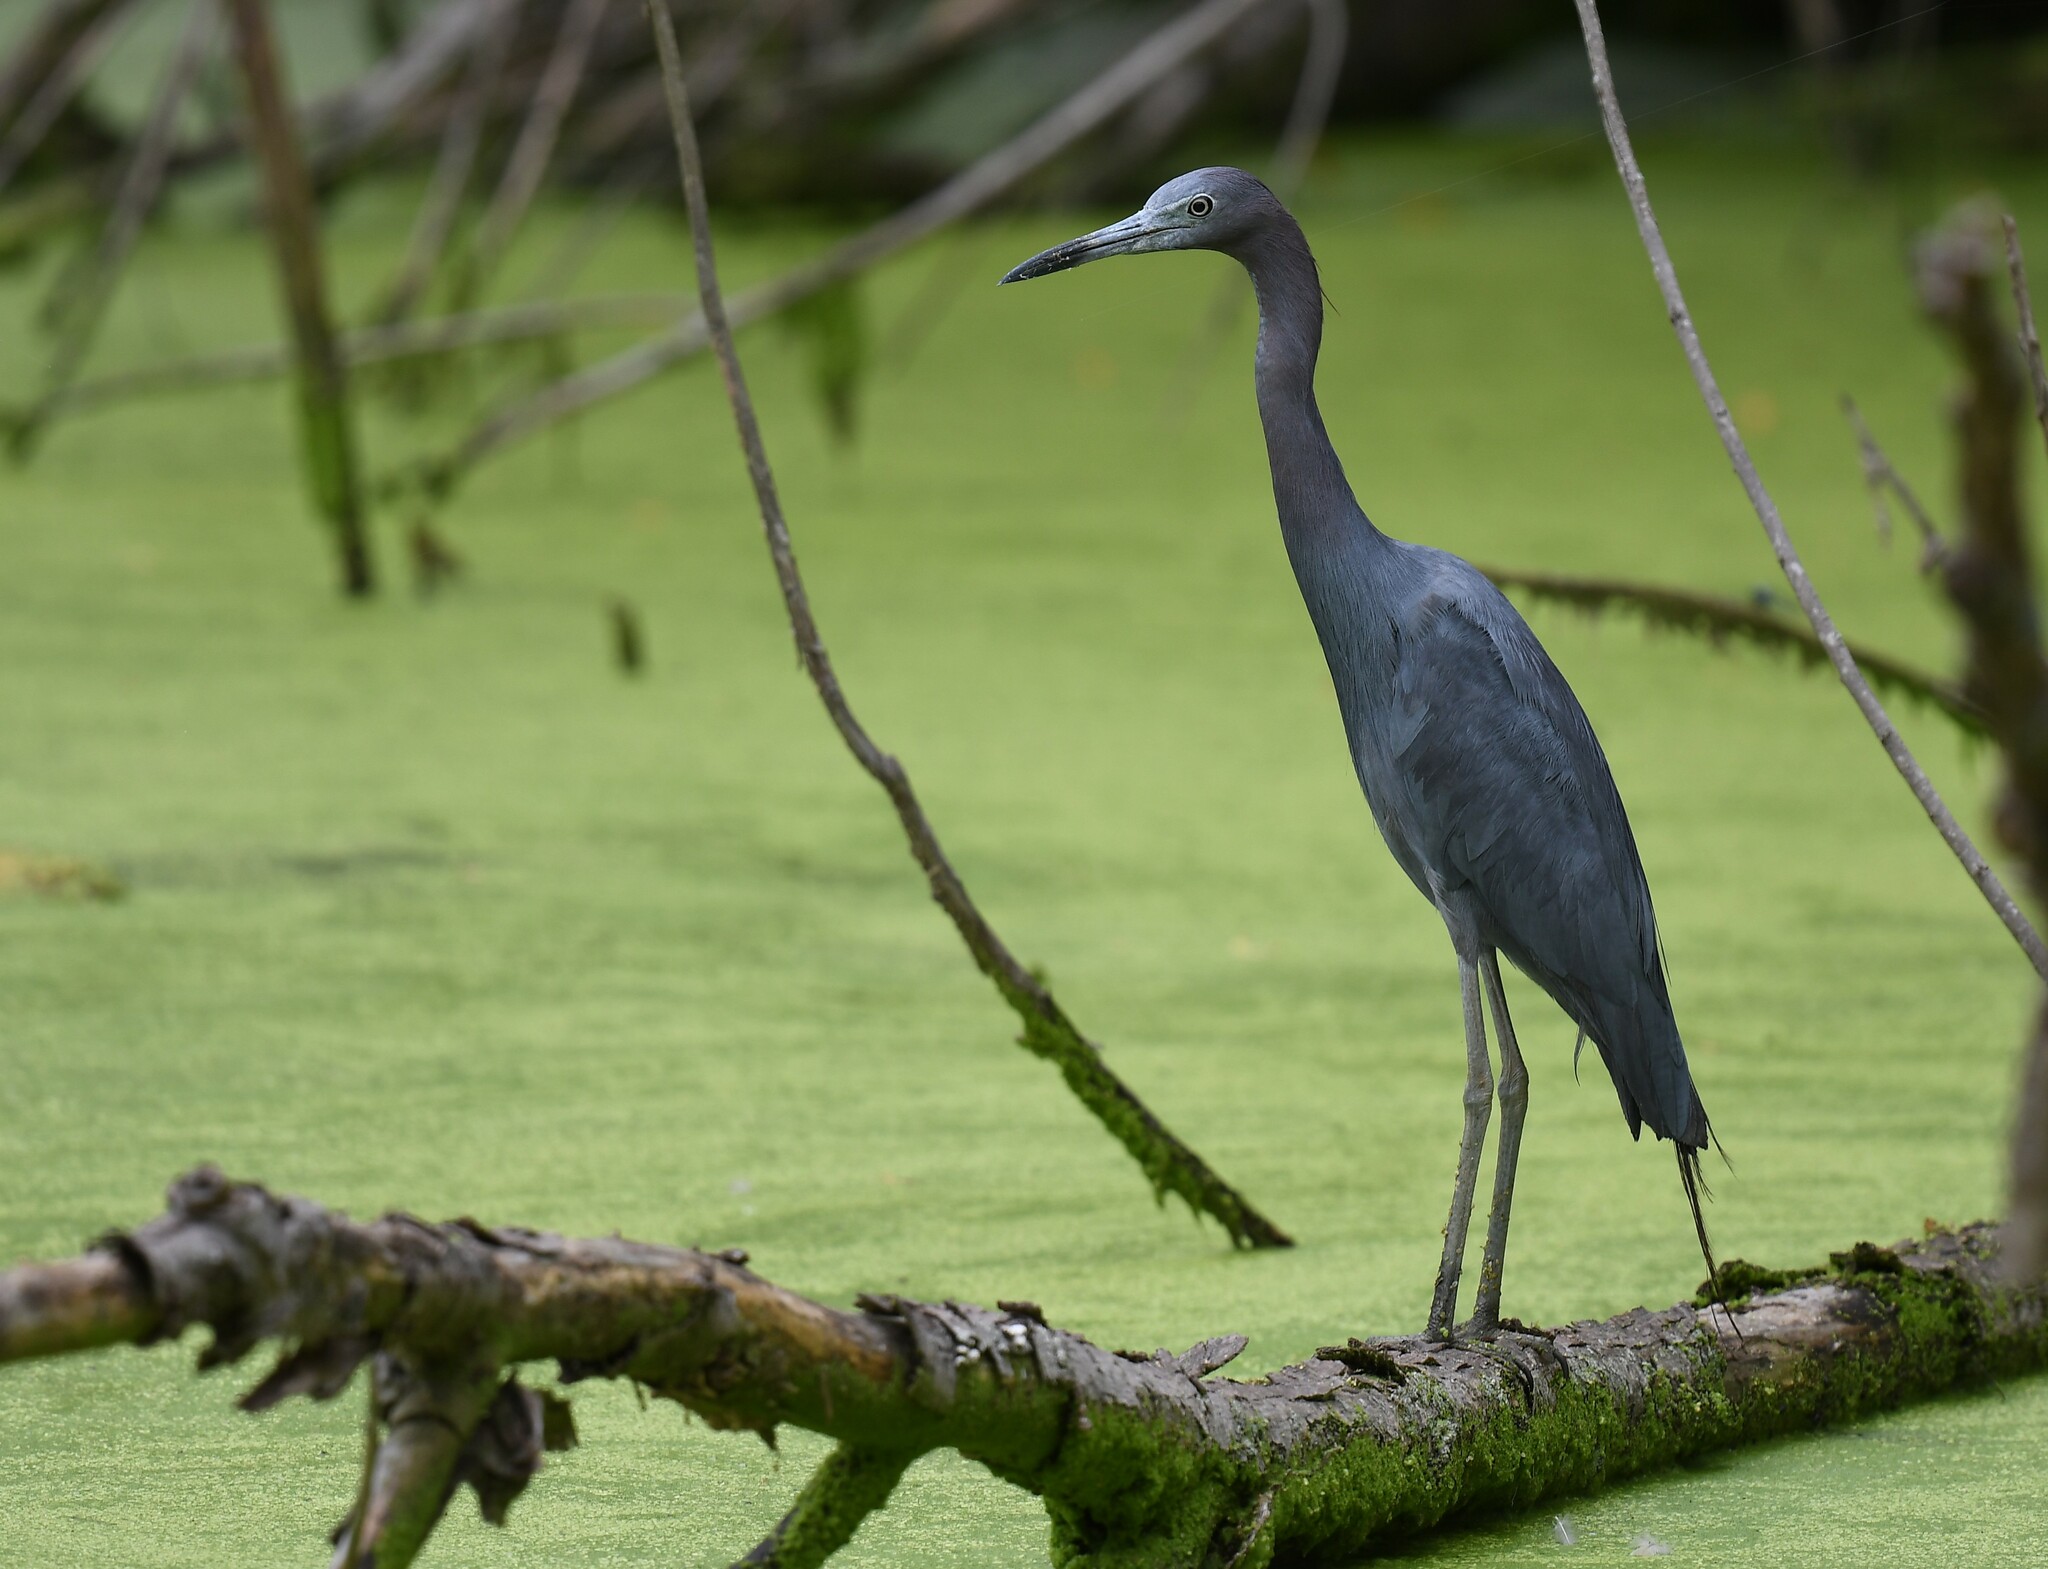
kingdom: Animalia
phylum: Chordata
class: Aves
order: Pelecaniformes
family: Ardeidae
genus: Egretta
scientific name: Egretta caerulea
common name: Little blue heron
